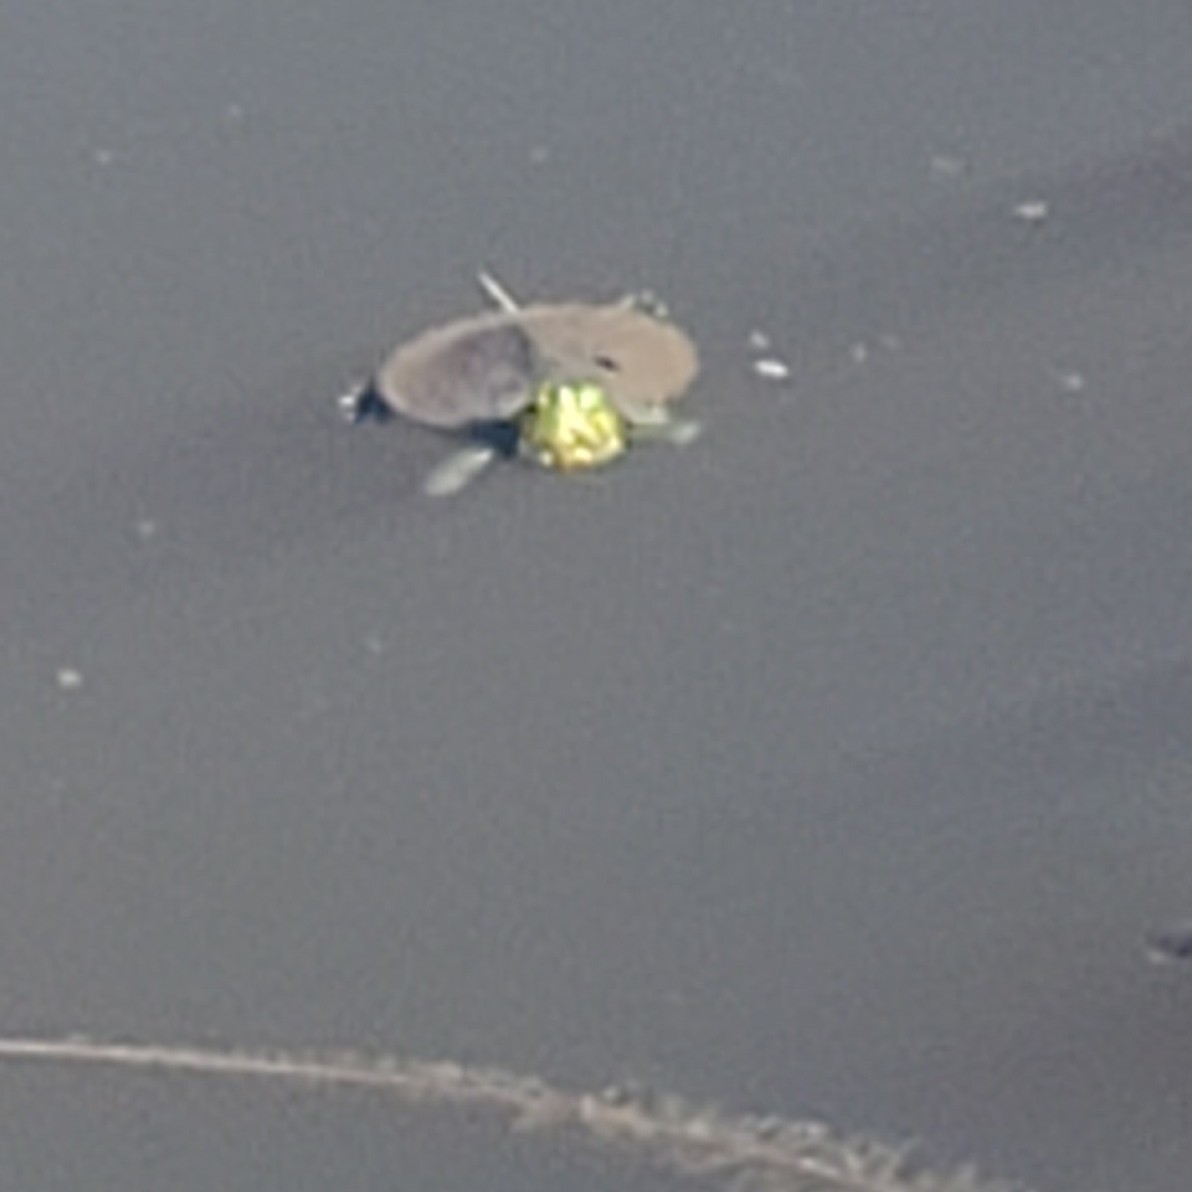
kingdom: Animalia
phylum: Chordata
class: Testudines
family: Emydidae
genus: Trachemys
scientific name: Trachemys scripta
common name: Slider
